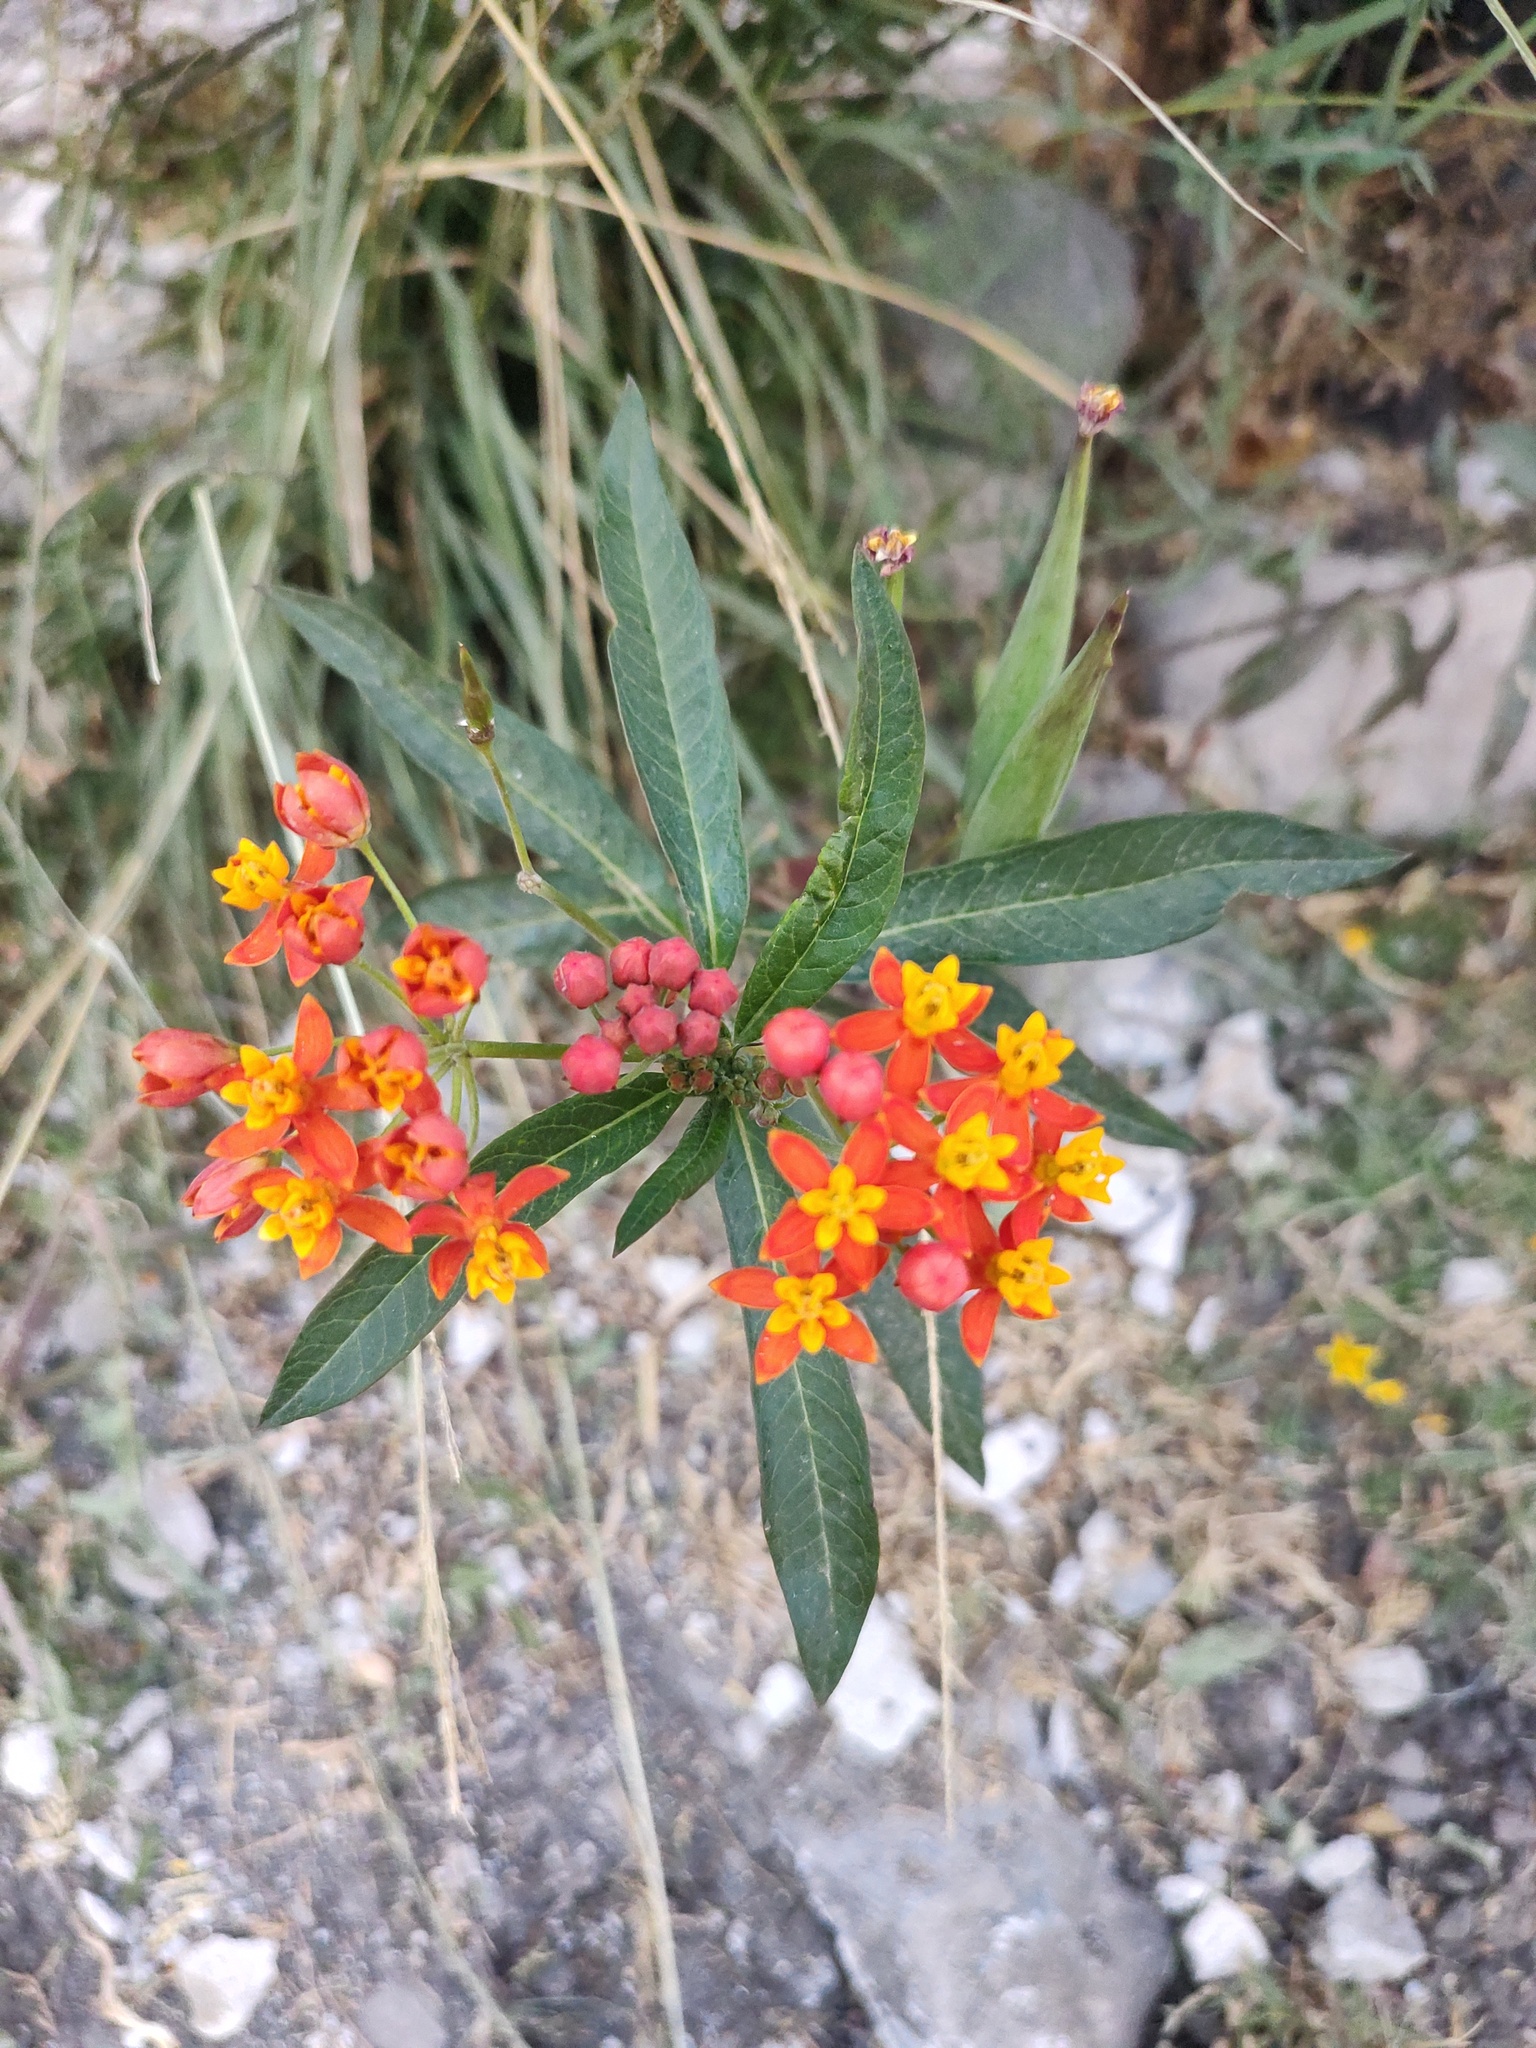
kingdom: Plantae
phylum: Tracheophyta
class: Magnoliopsida
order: Gentianales
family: Apocynaceae
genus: Asclepias
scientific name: Asclepias curassavica
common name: Bloodflower
